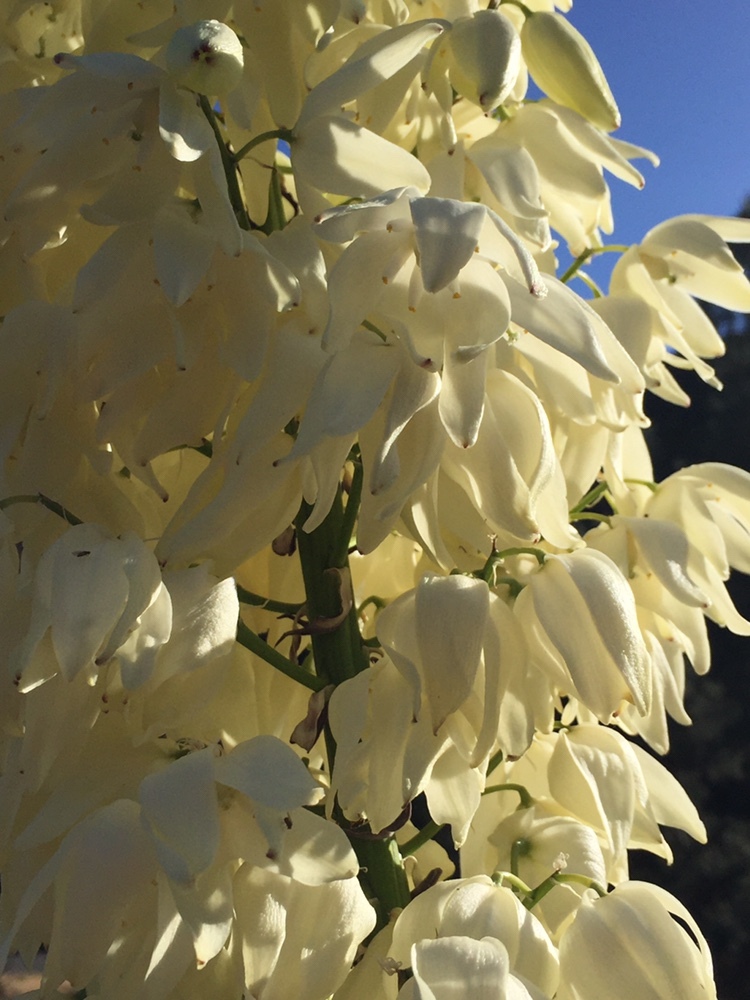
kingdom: Plantae
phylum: Tracheophyta
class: Liliopsida
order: Asparagales
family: Asparagaceae
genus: Hesperoyucca
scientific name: Hesperoyucca whipplei
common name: Our lord's-candle
